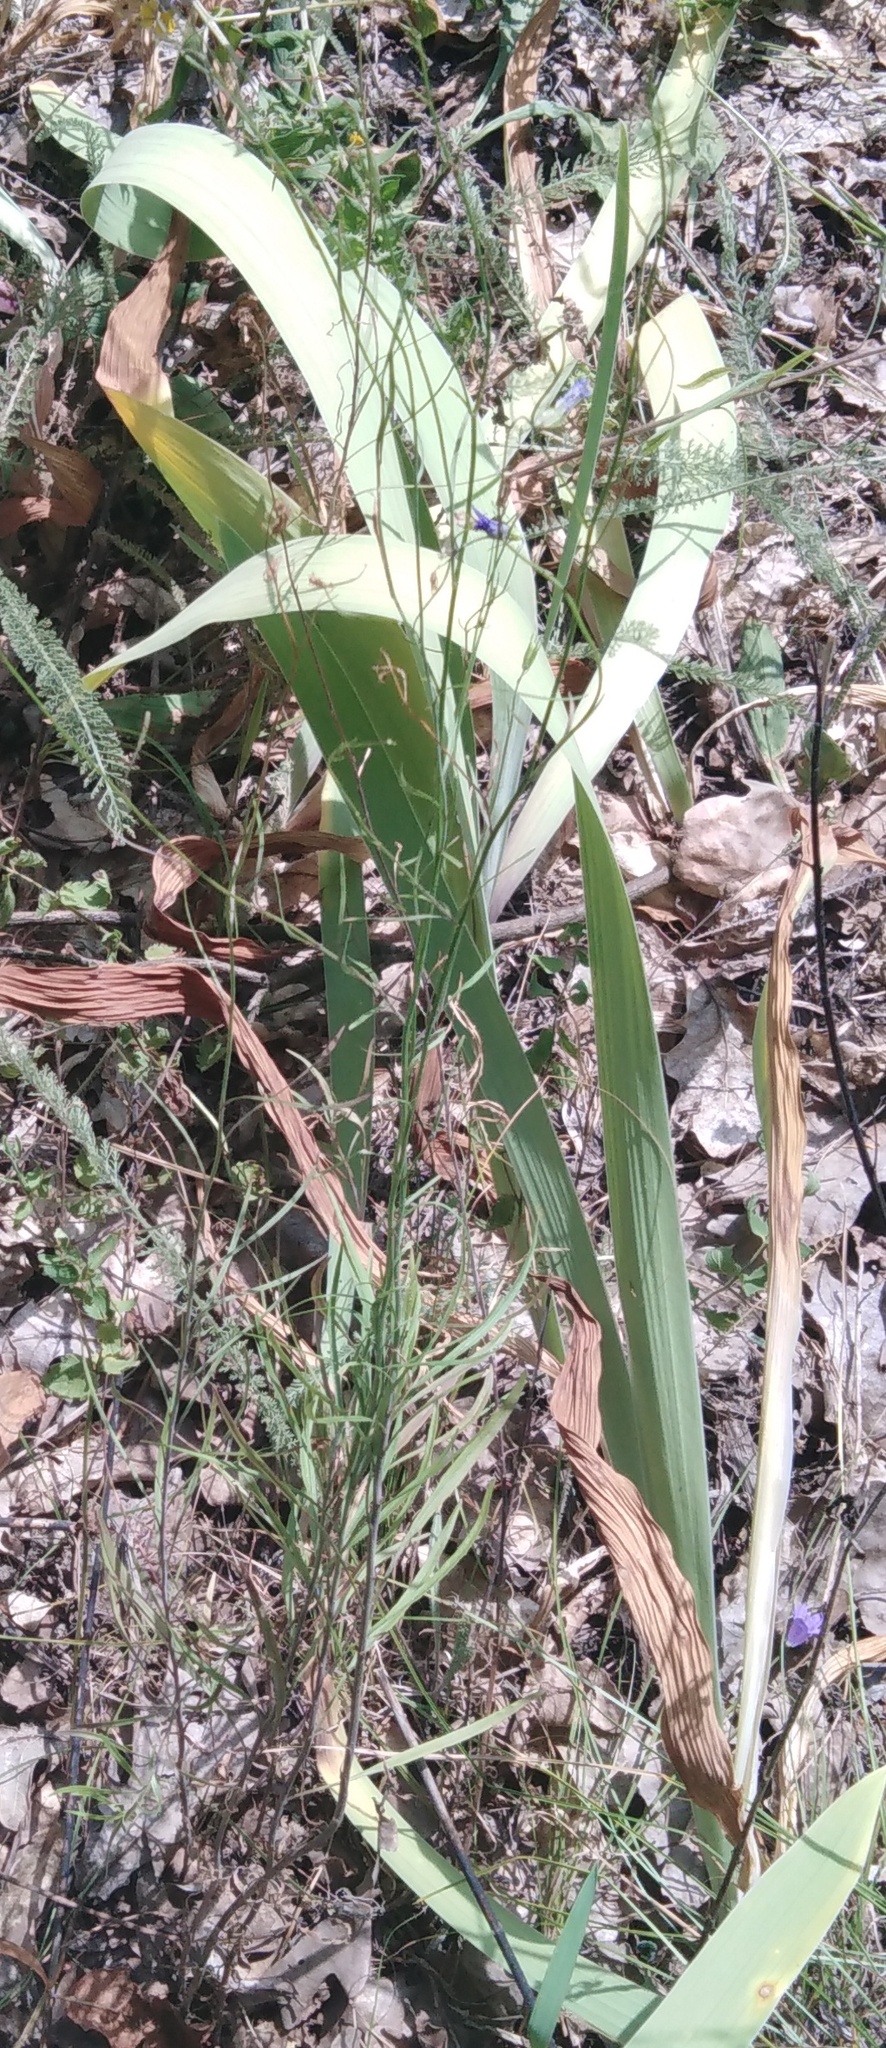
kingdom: Plantae
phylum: Tracheophyta
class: Magnoliopsida
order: Asterales
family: Campanulaceae
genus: Campanula
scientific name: Campanula rotundifolia
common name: Harebell
